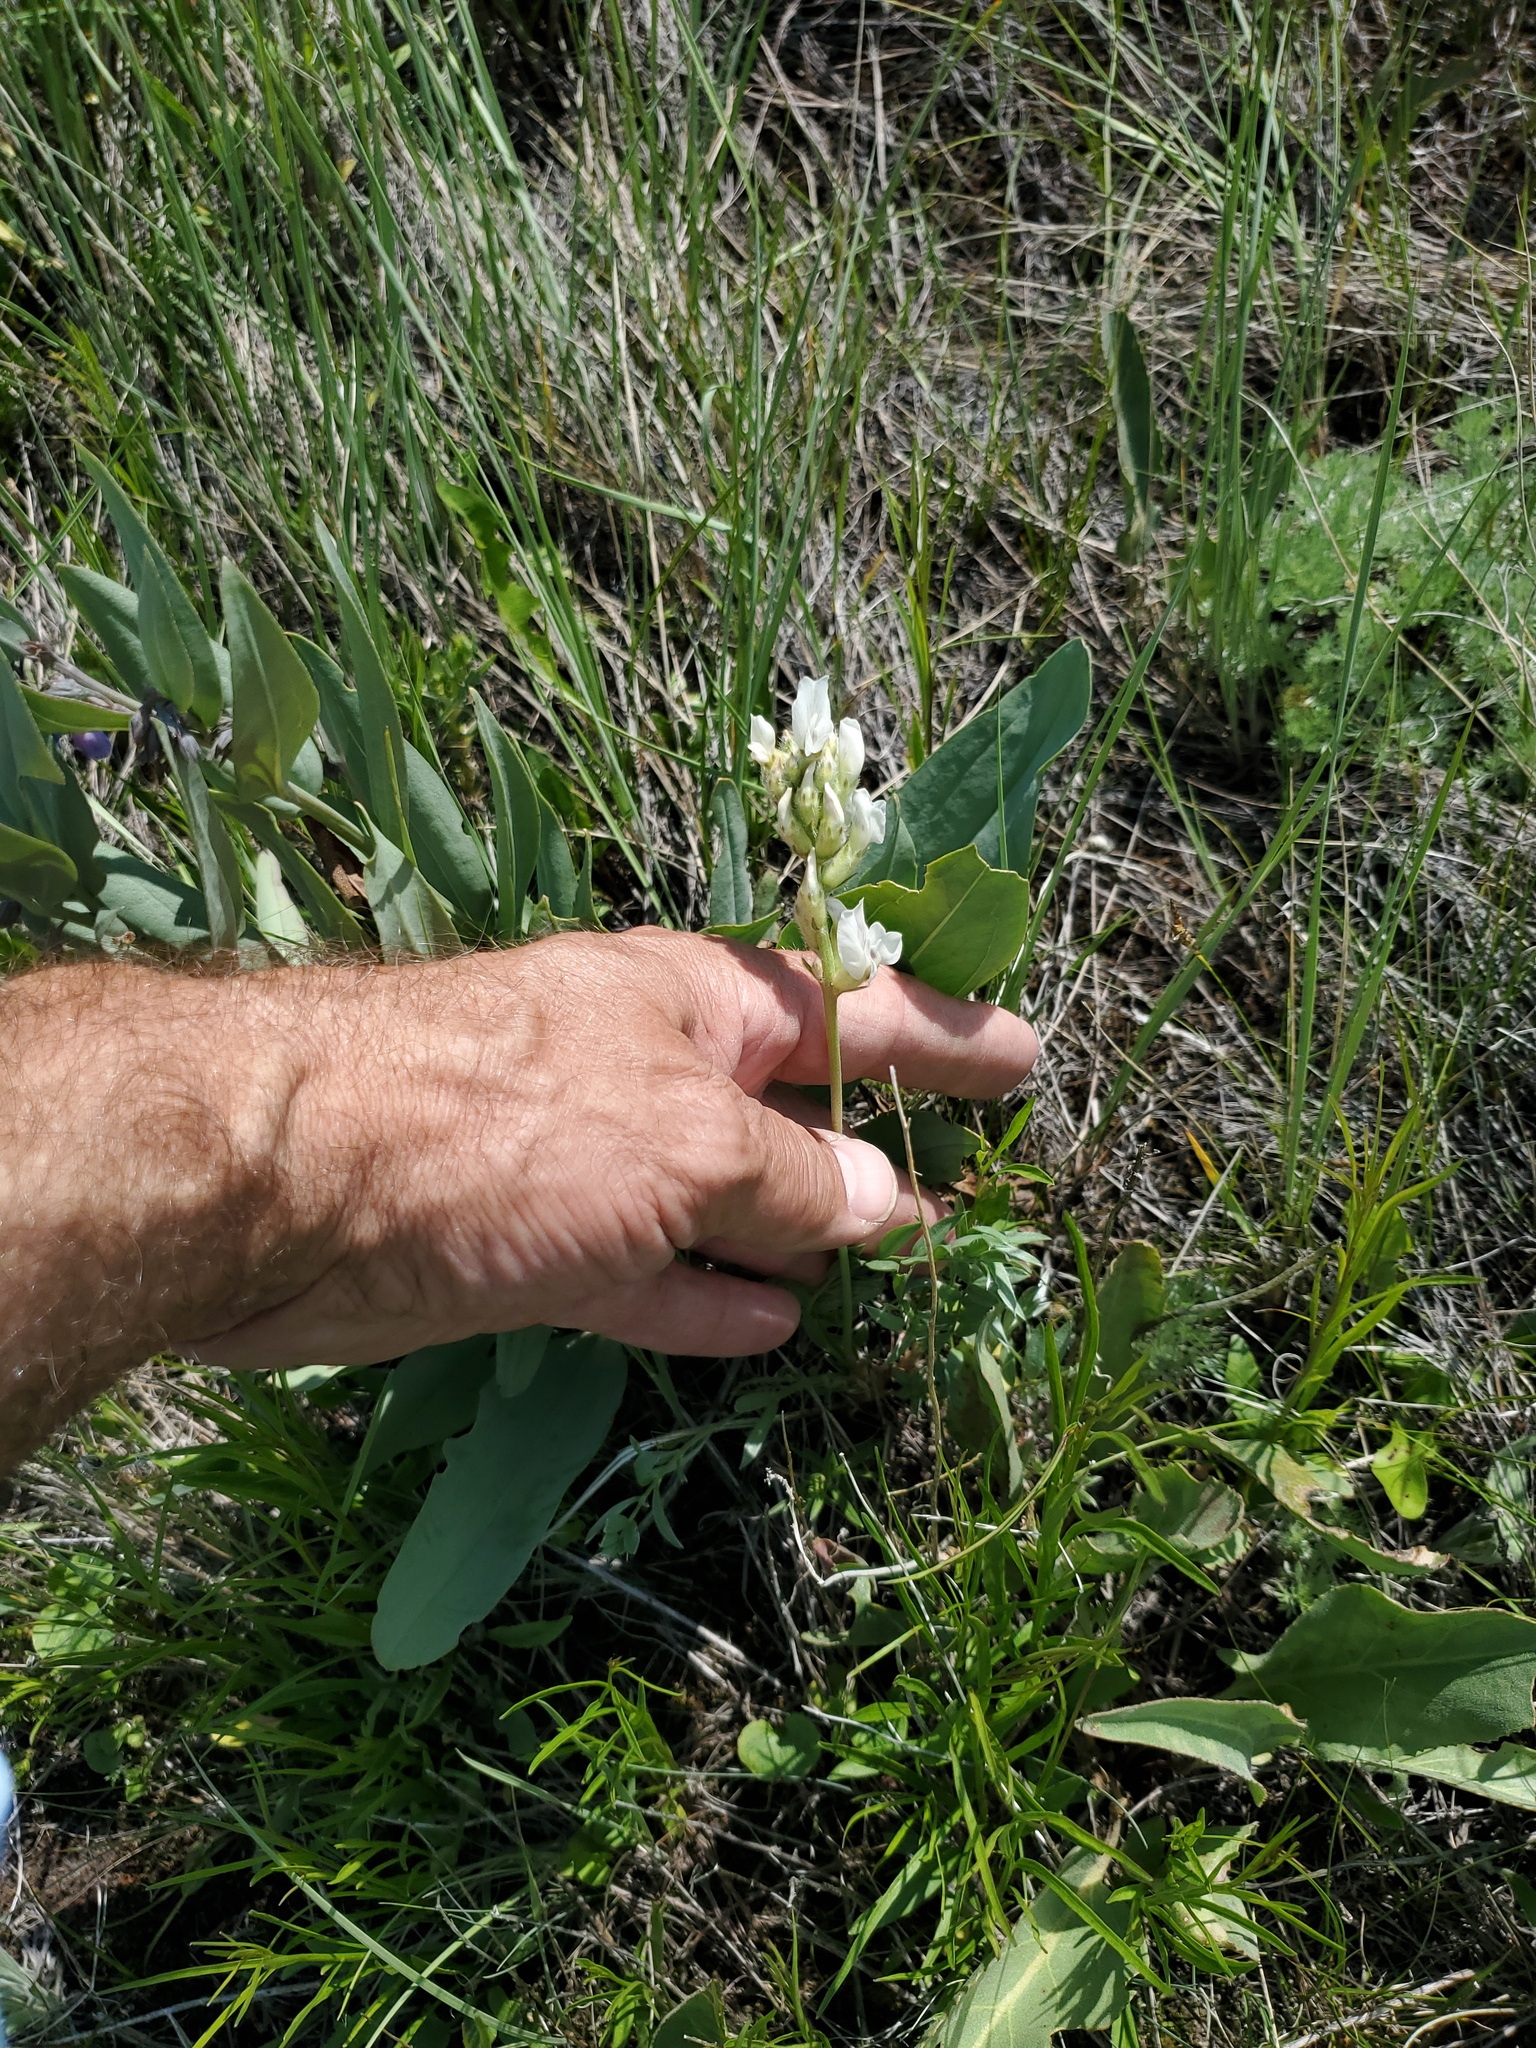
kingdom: Plantae
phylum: Tracheophyta
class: Magnoliopsida
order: Fabales
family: Fabaceae
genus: Oxytropis
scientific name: Oxytropis sericea
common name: Silky locoweed
